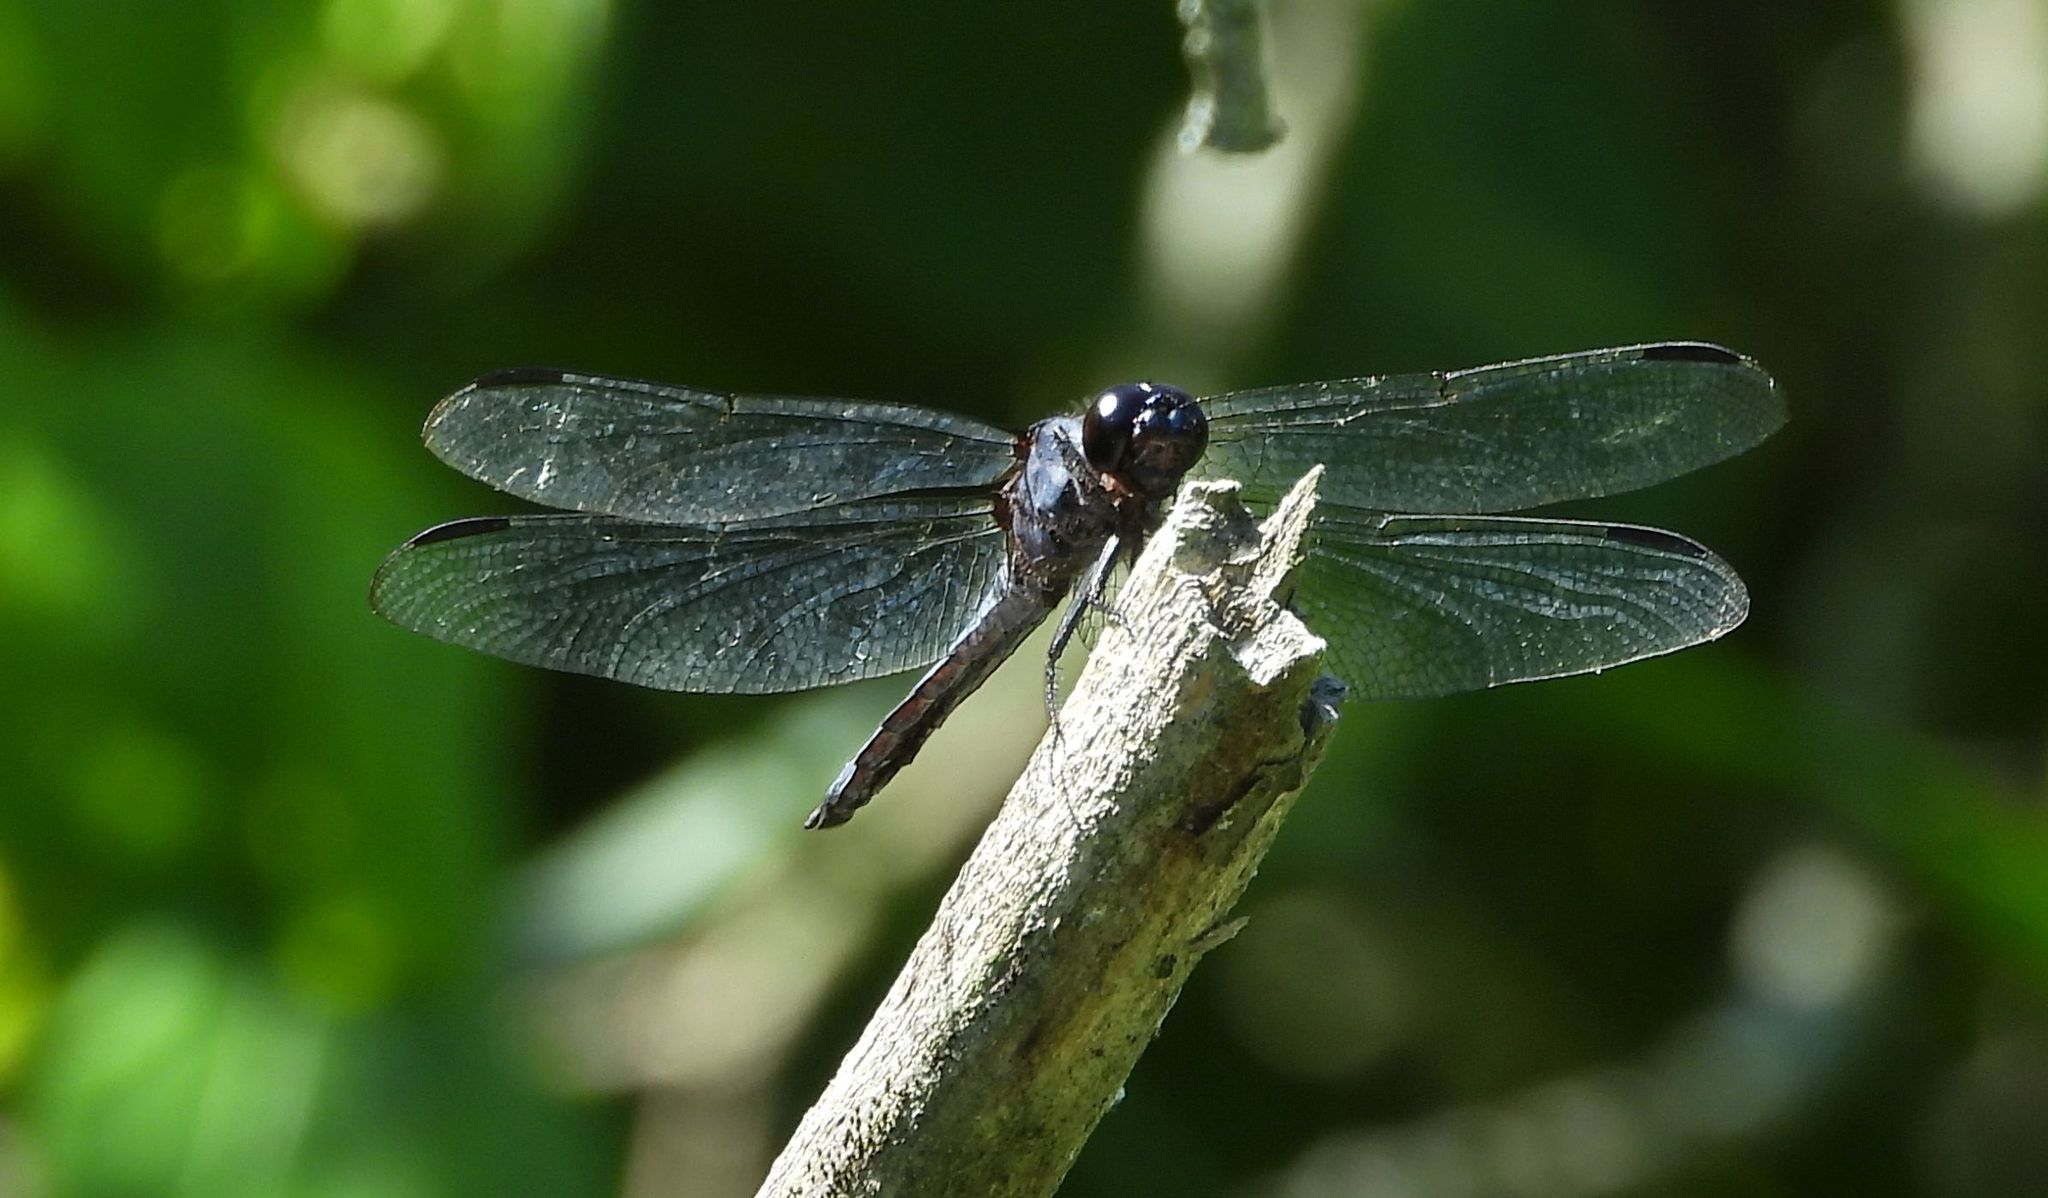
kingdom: Animalia
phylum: Arthropoda
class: Insecta
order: Odonata
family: Libellulidae
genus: Libellula
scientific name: Libellula incesta
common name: Slaty skimmer
